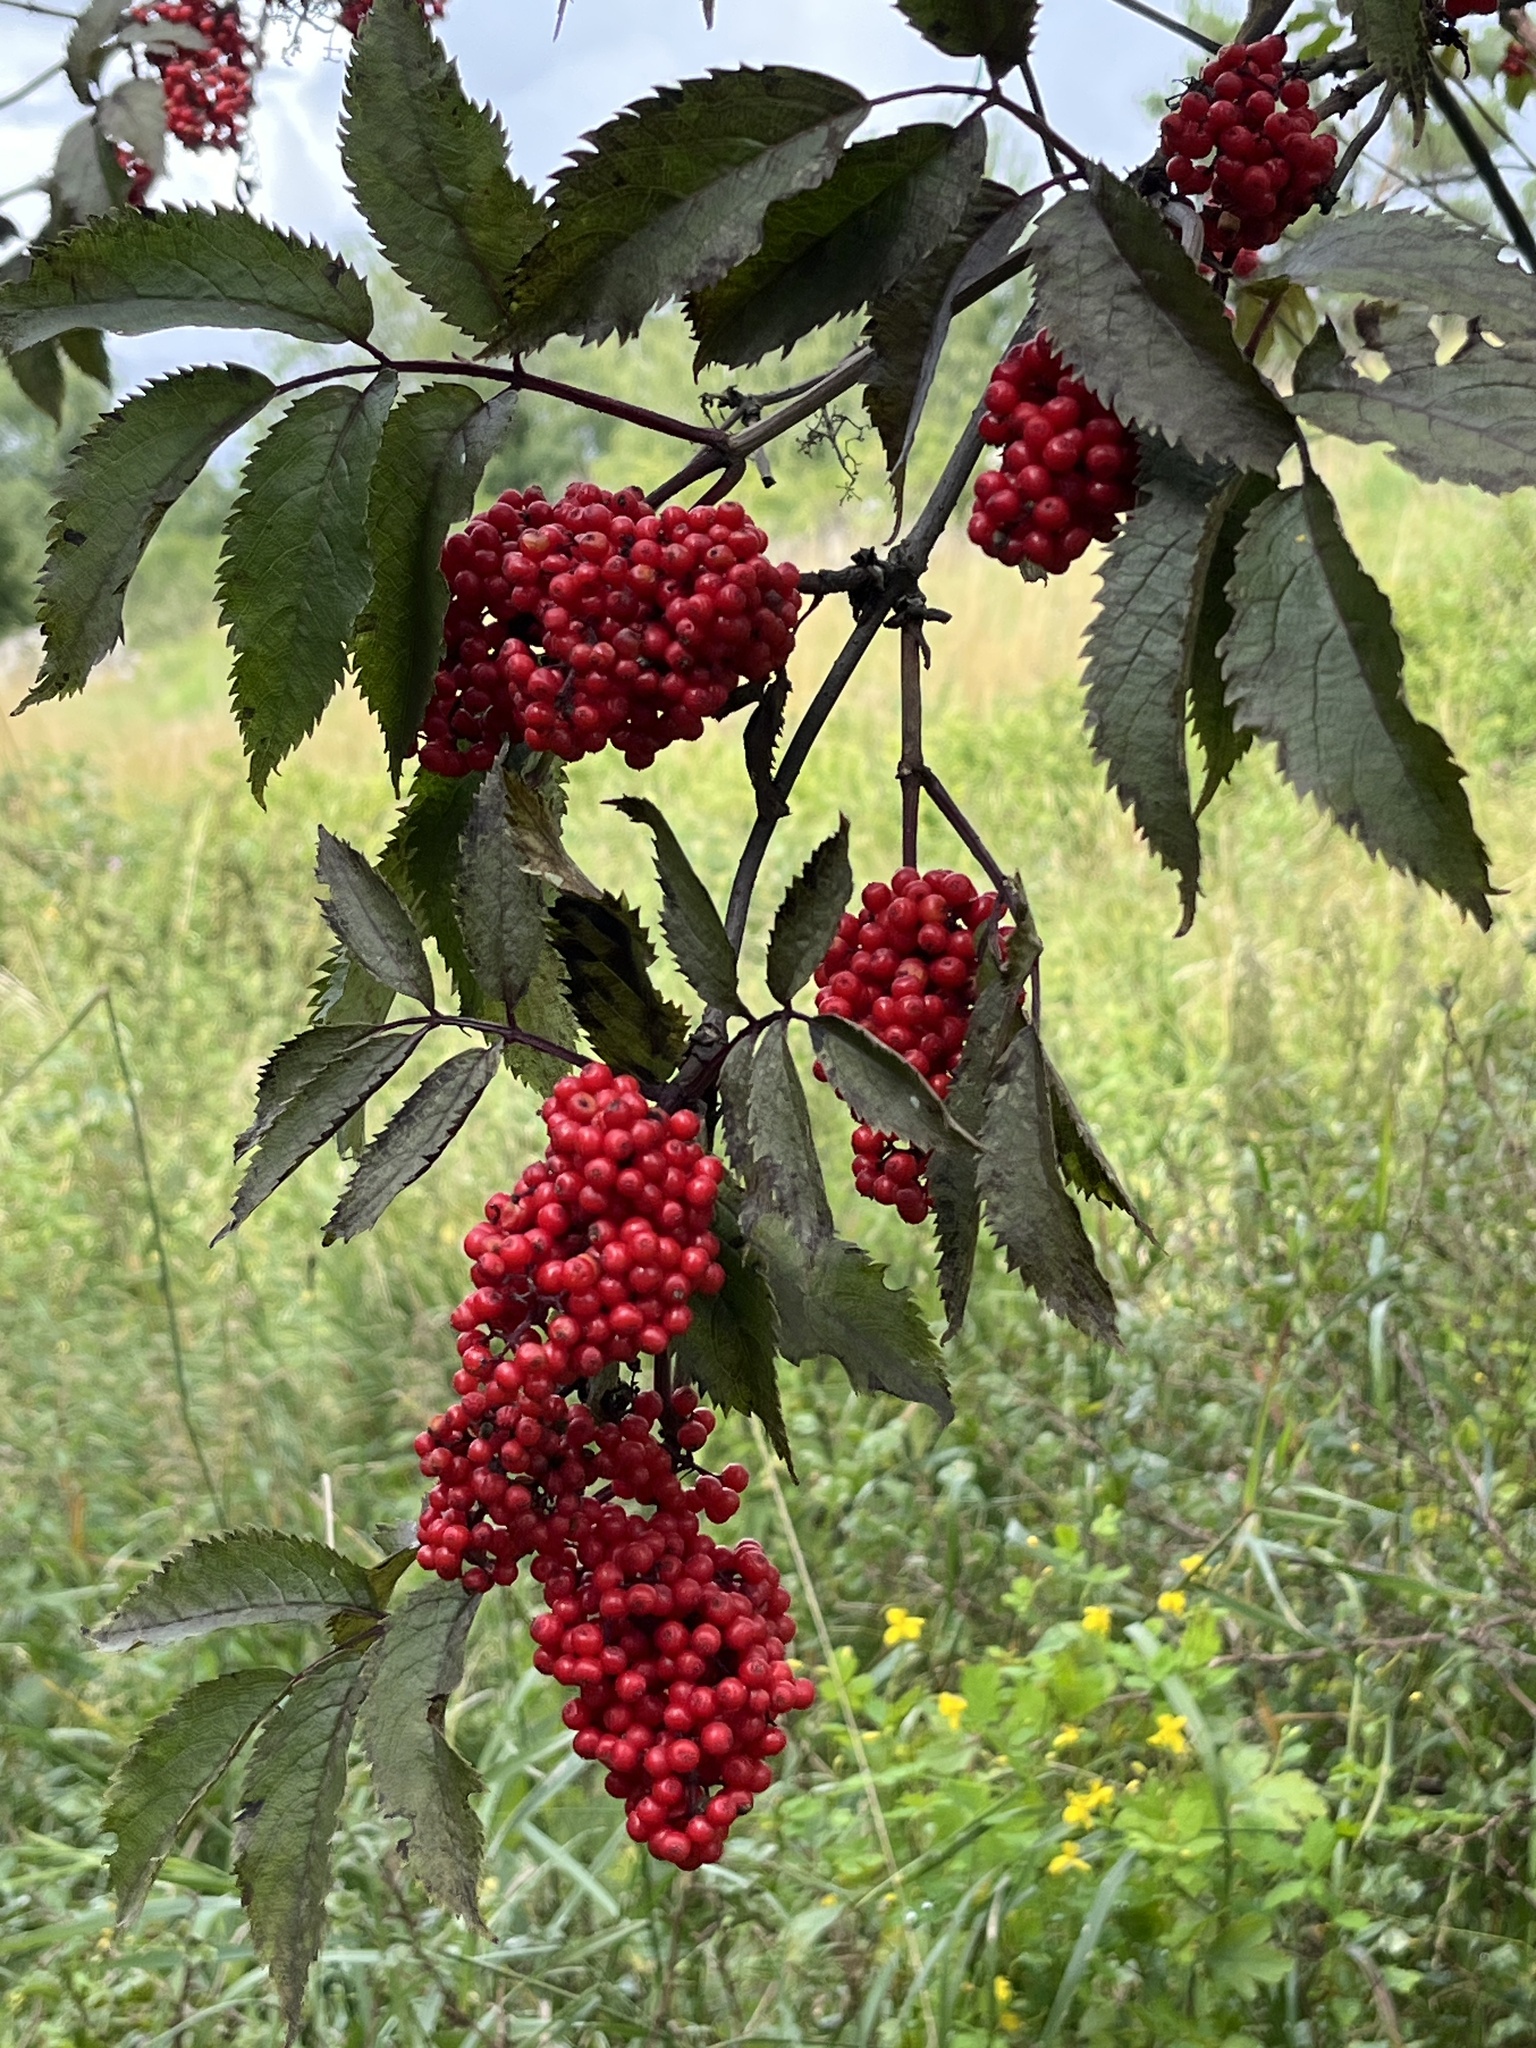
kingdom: Plantae
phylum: Tracheophyta
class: Magnoliopsida
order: Dipsacales
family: Viburnaceae
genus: Sambucus
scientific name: Sambucus racemosa
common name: Red-berried elder
